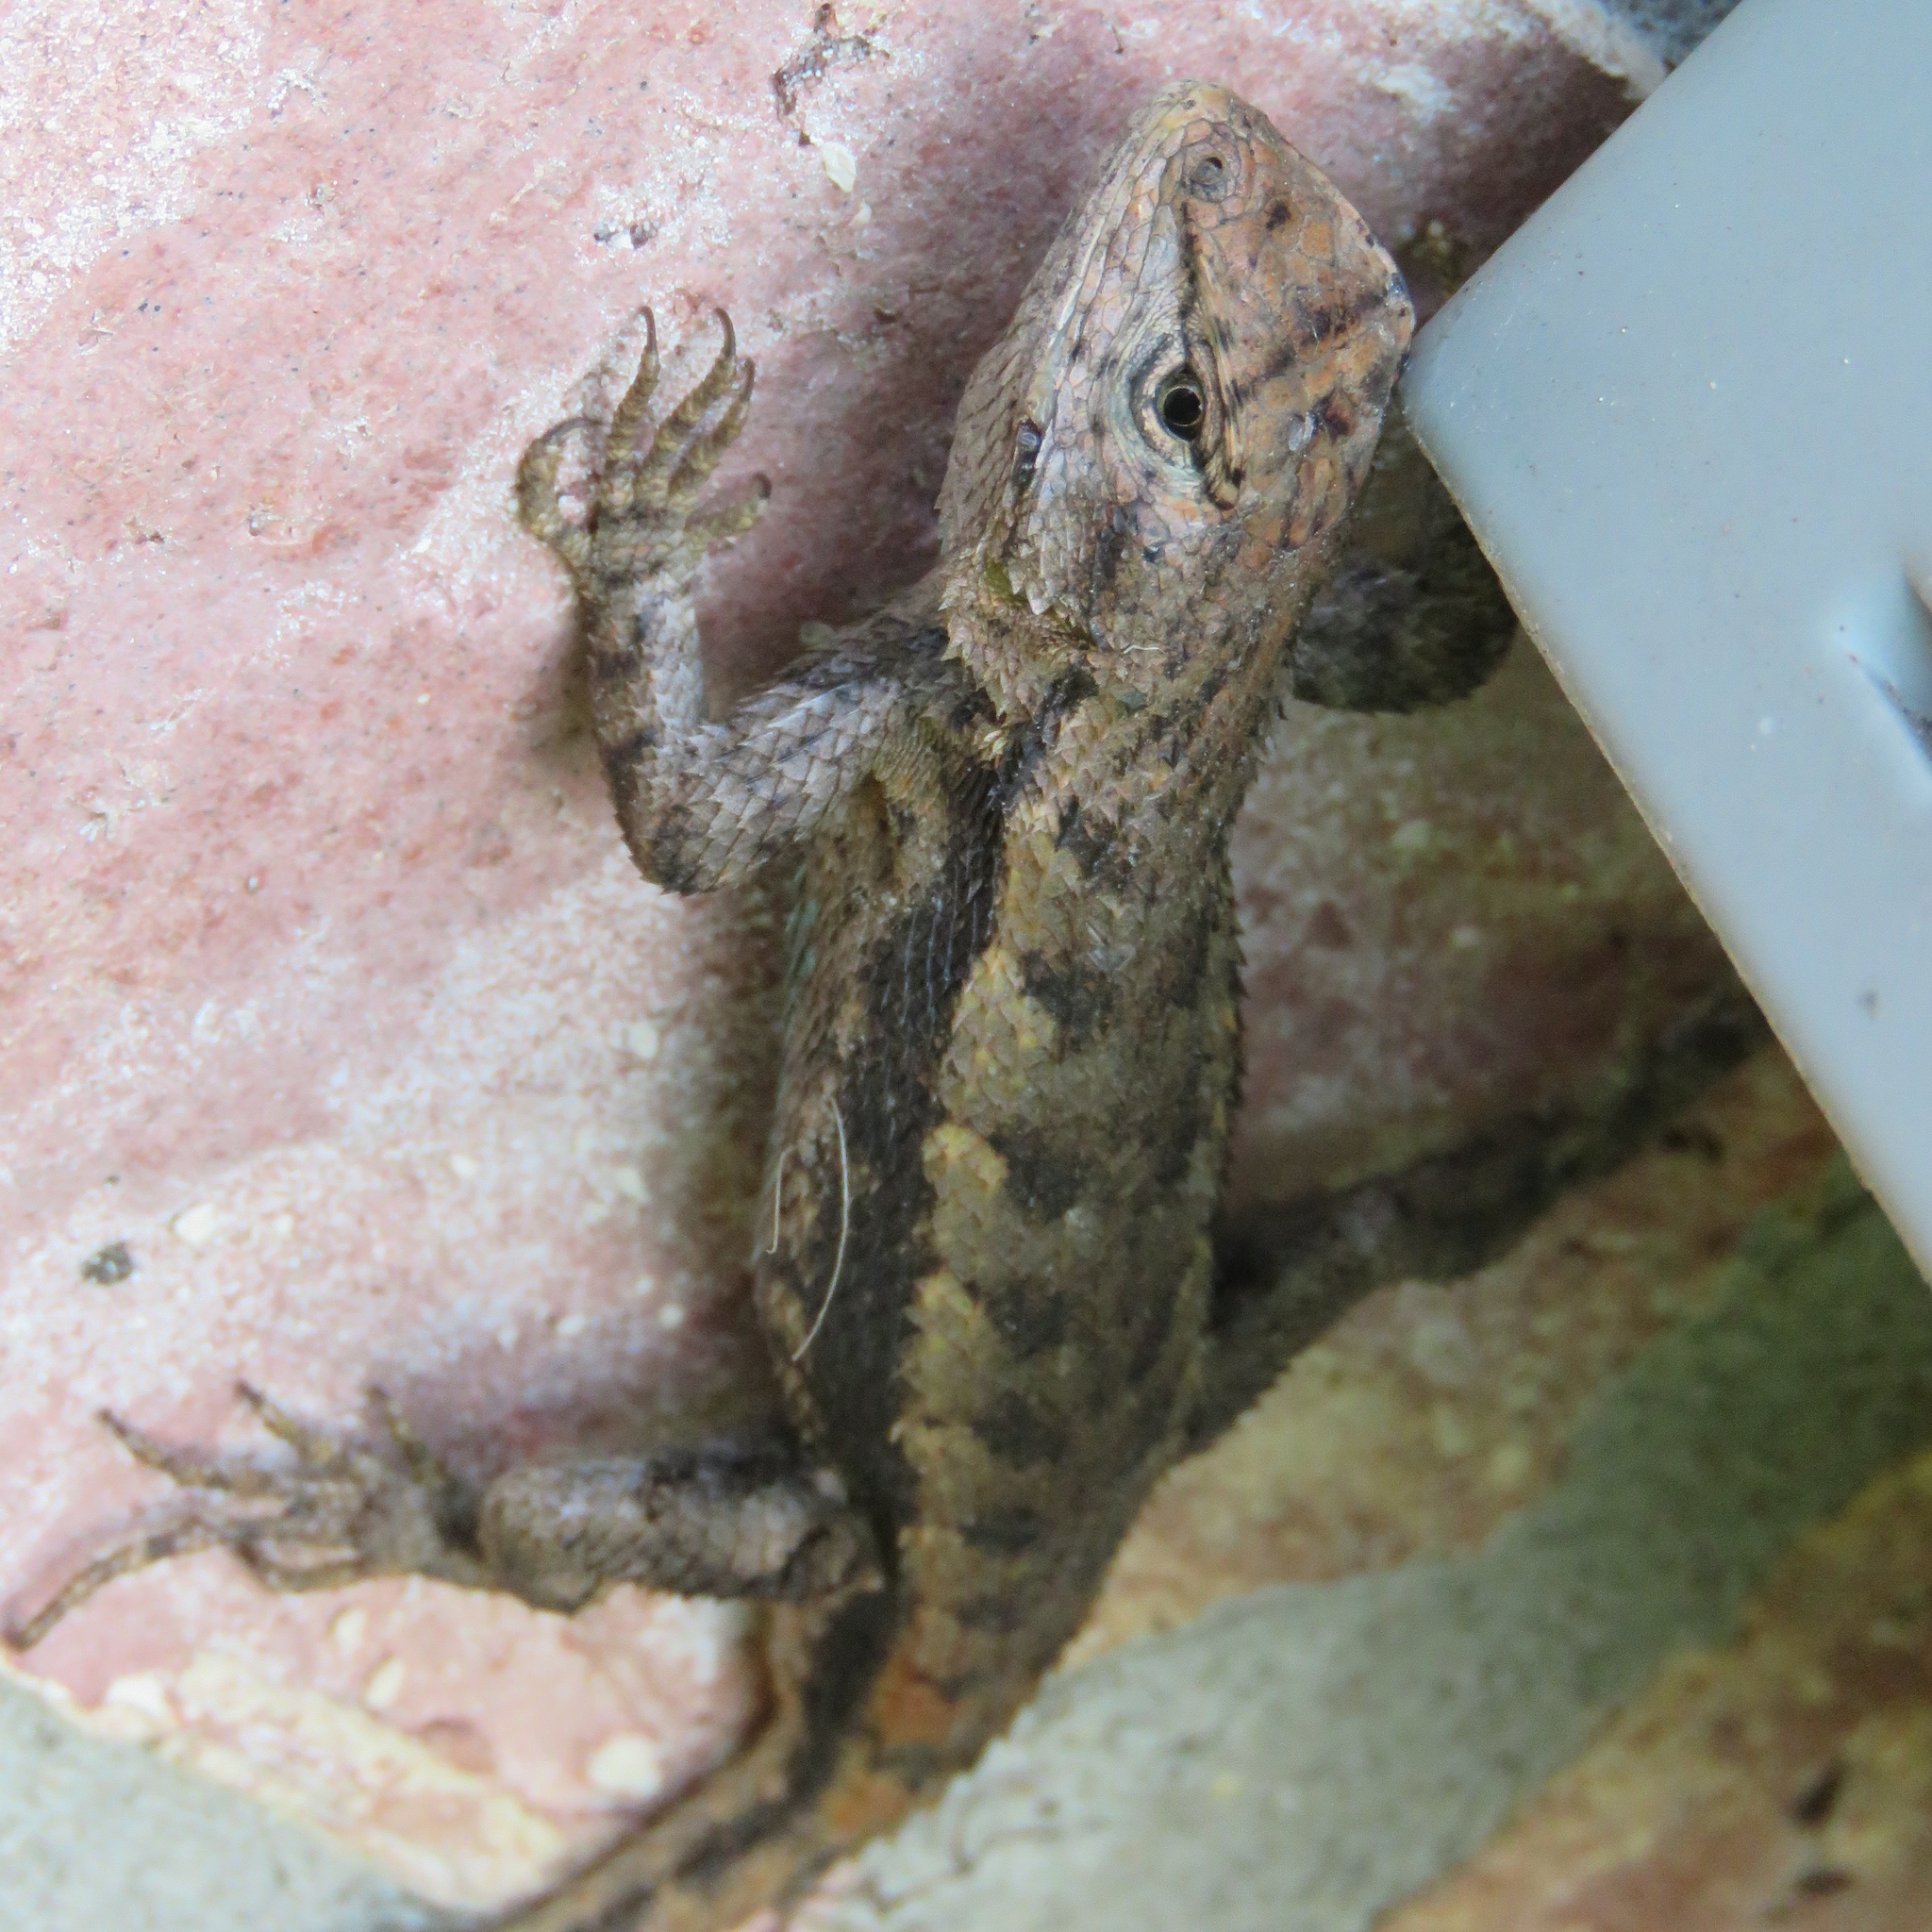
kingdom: Animalia
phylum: Chordata
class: Squamata
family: Phrynosomatidae
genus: Sceloporus
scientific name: Sceloporus consobrinus
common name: Southern prairie lizard
